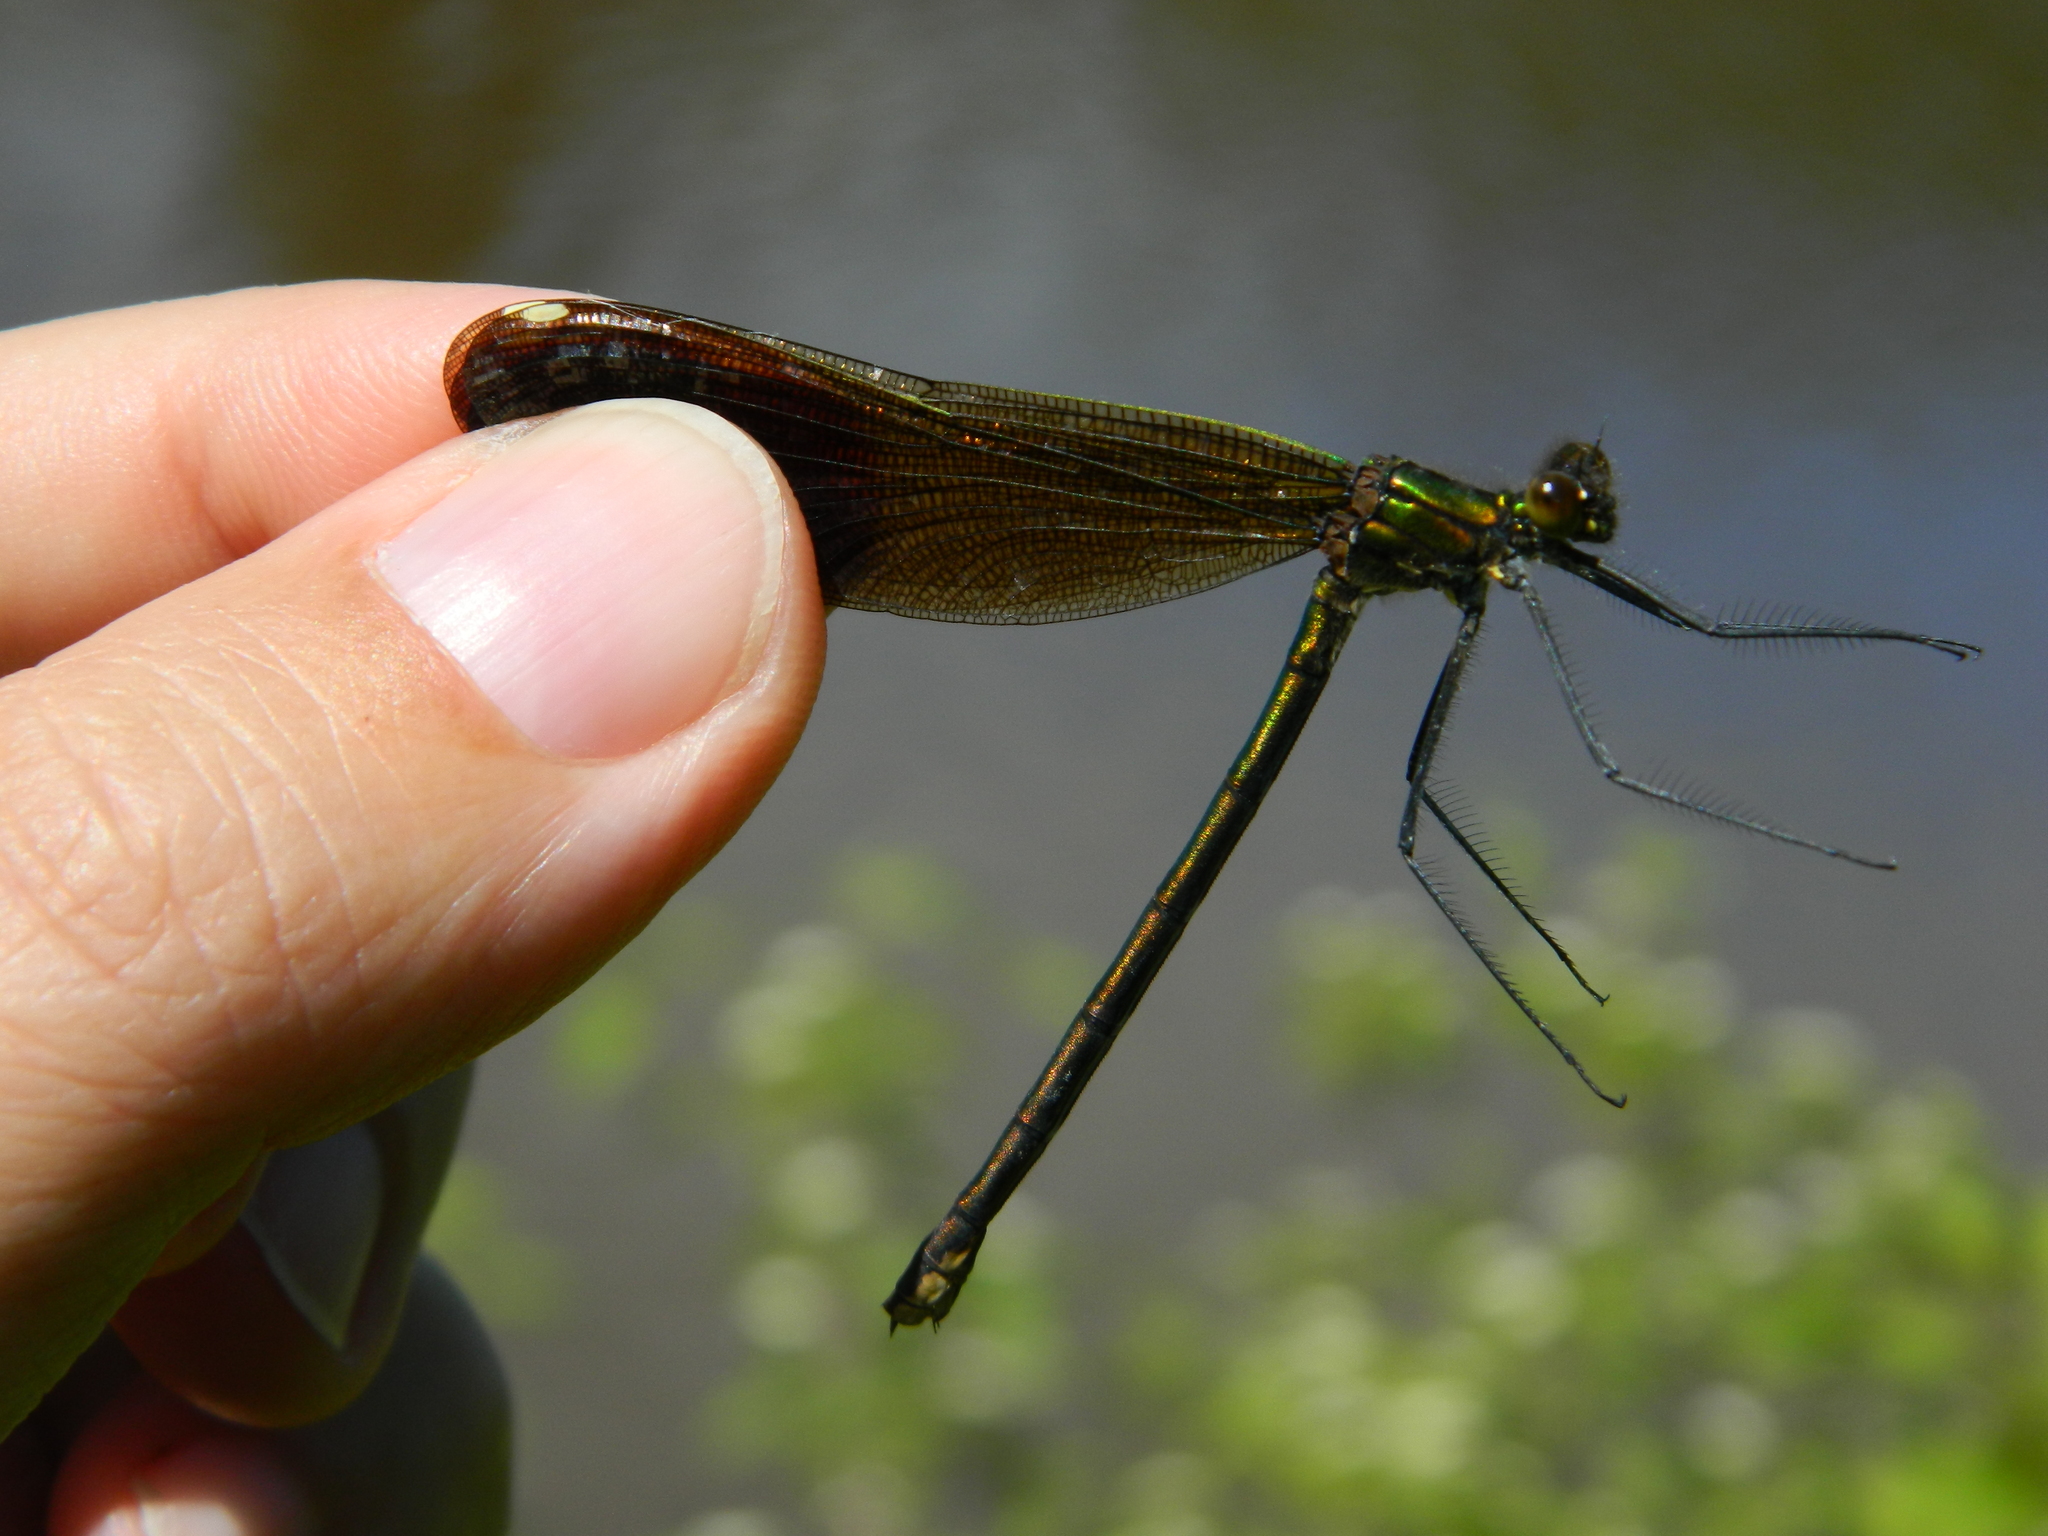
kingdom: Animalia
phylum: Arthropoda
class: Insecta
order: Odonata
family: Calopterygidae
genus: Calopteryx
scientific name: Calopteryx aequabilis
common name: River jewelwing
